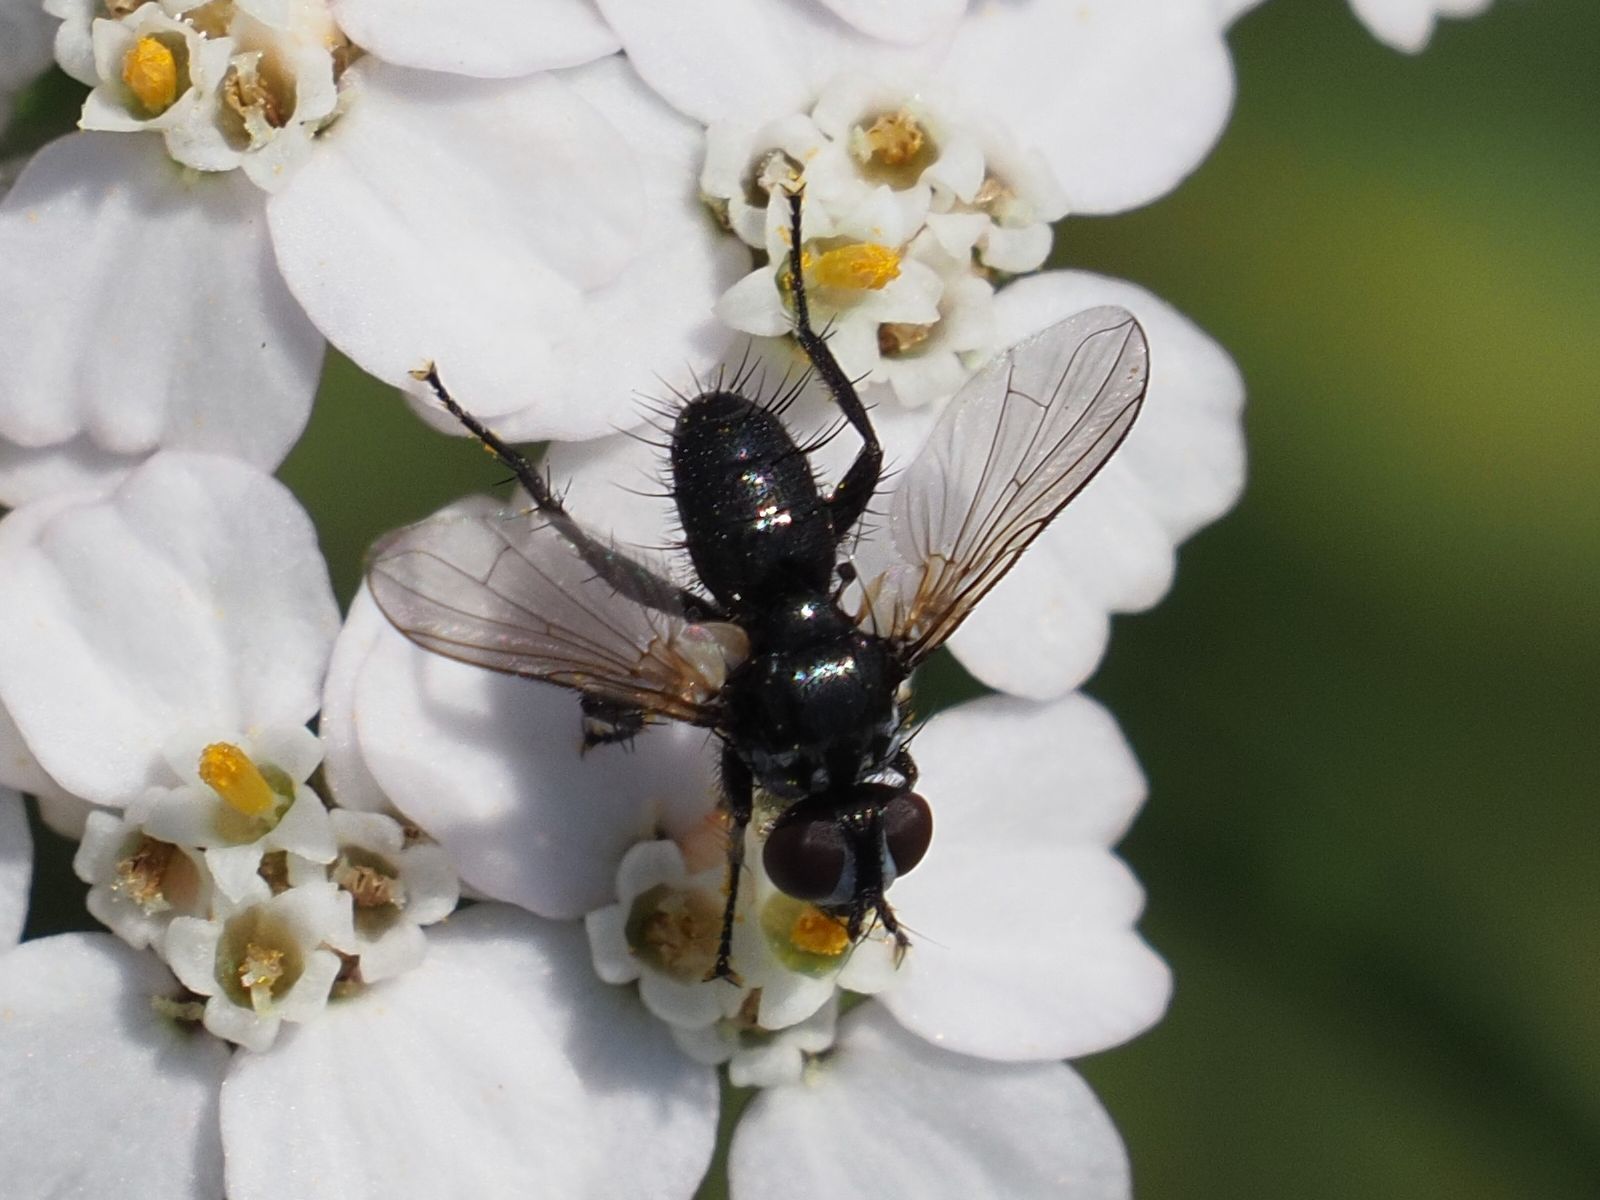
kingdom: Animalia
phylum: Arthropoda
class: Insecta
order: Diptera
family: Tachinidae
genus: Phania
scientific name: Phania funesta
